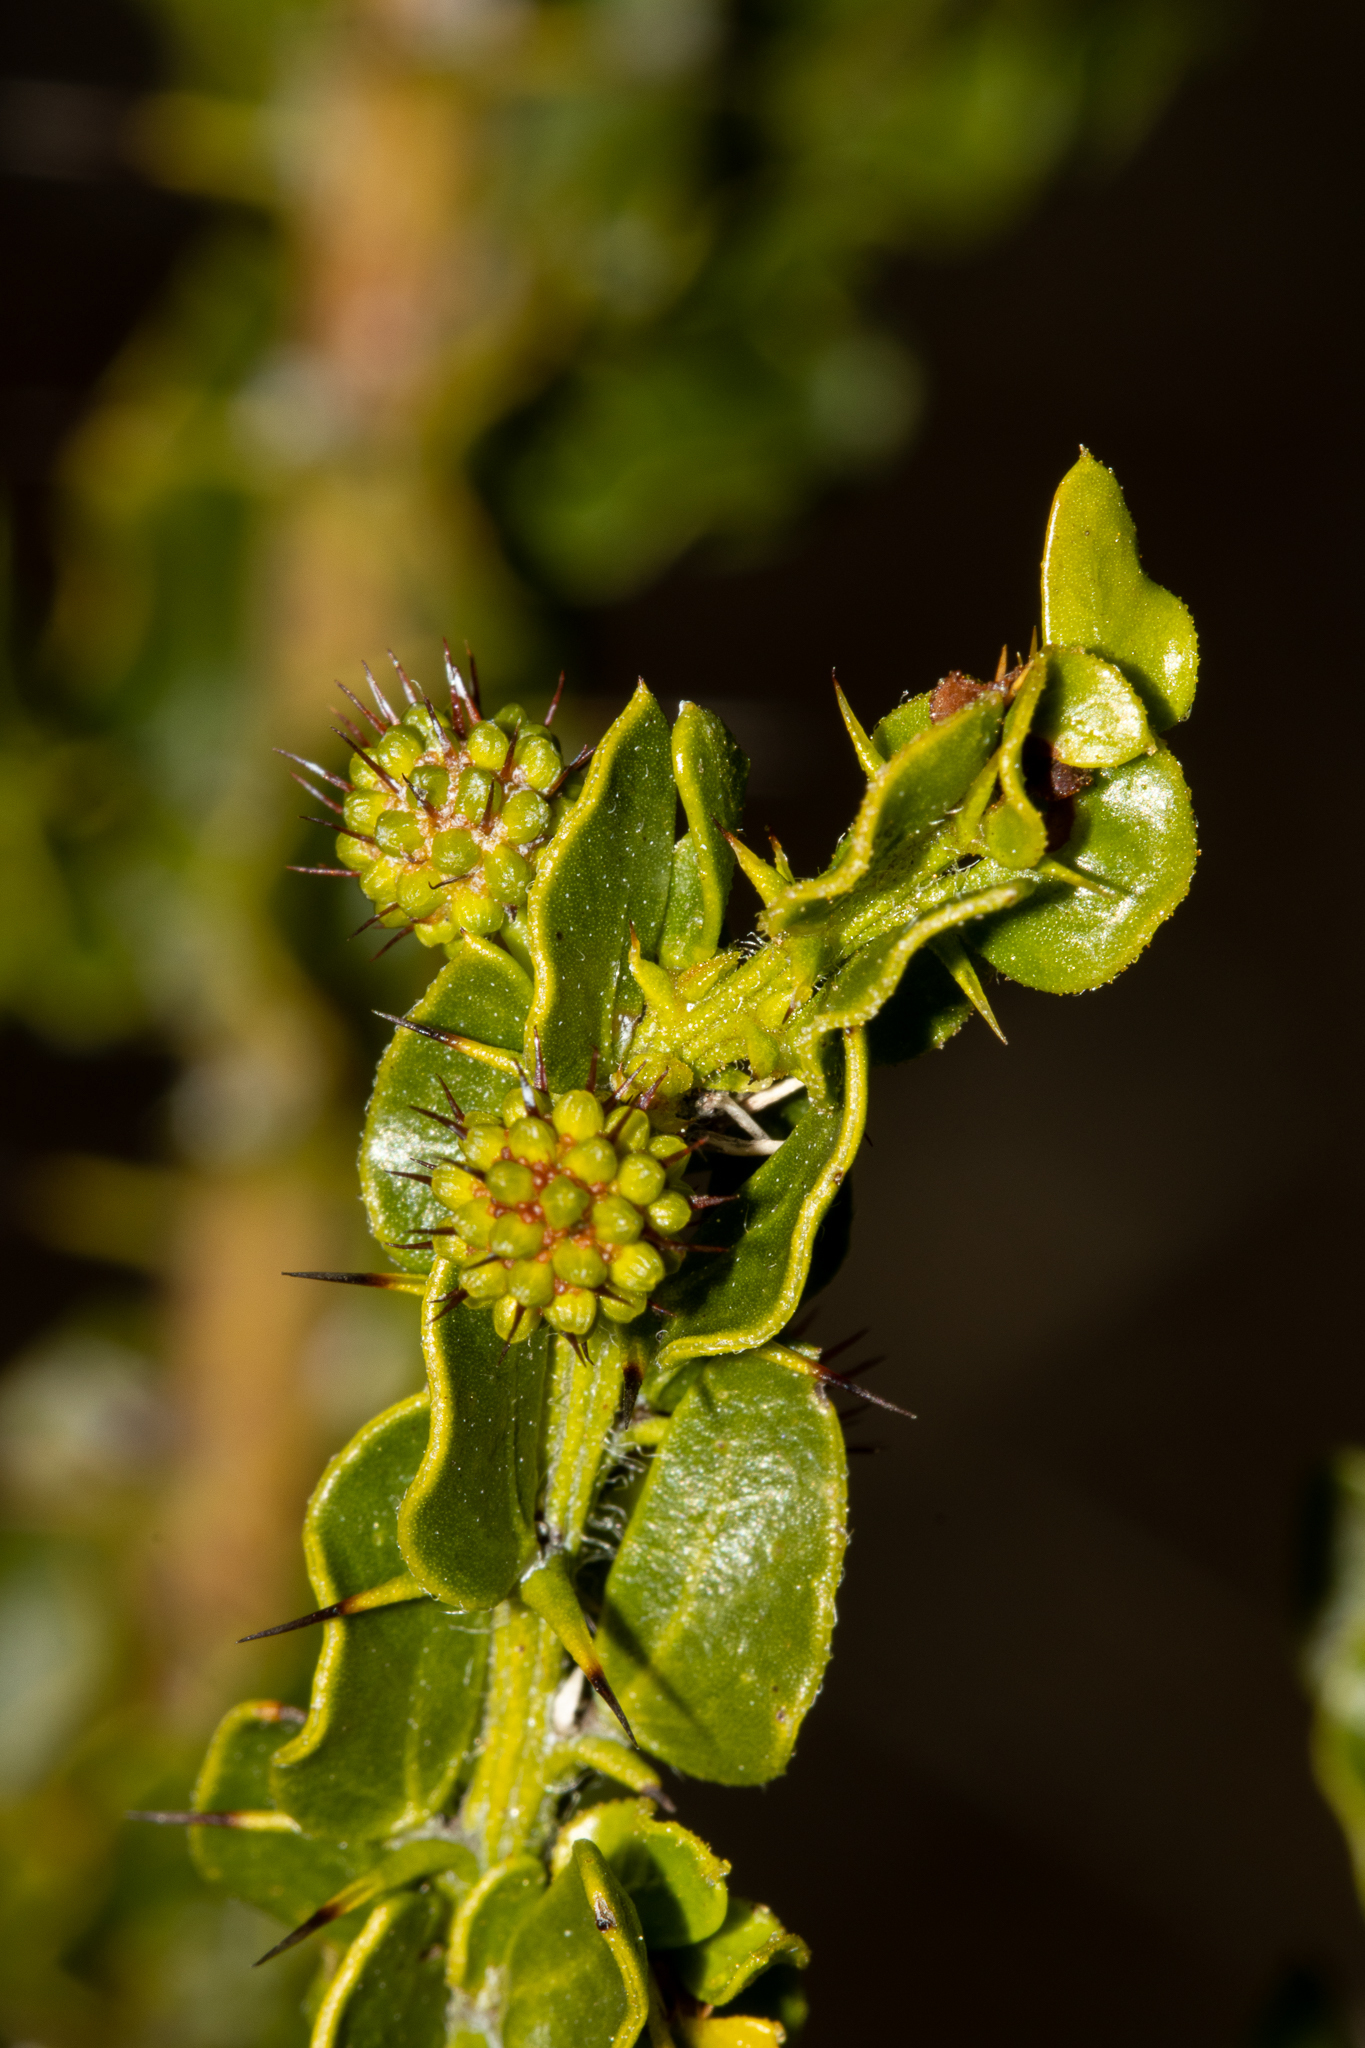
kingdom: Plantae
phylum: Tracheophyta
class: Magnoliopsida
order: Fabales
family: Fabaceae
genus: Acacia
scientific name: Acacia paradoxa
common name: Paradox acacia
